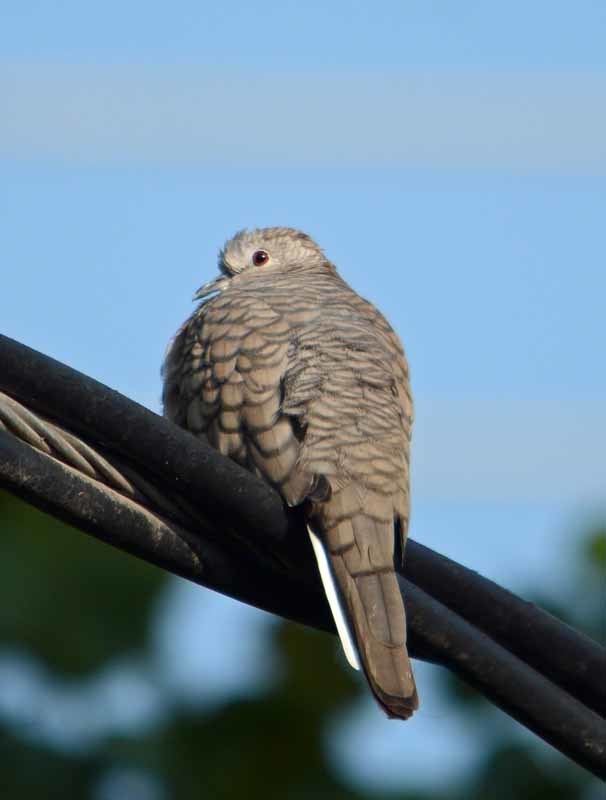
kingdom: Animalia
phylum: Chordata
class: Aves
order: Columbiformes
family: Columbidae
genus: Columbina
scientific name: Columbina inca
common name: Inca dove
